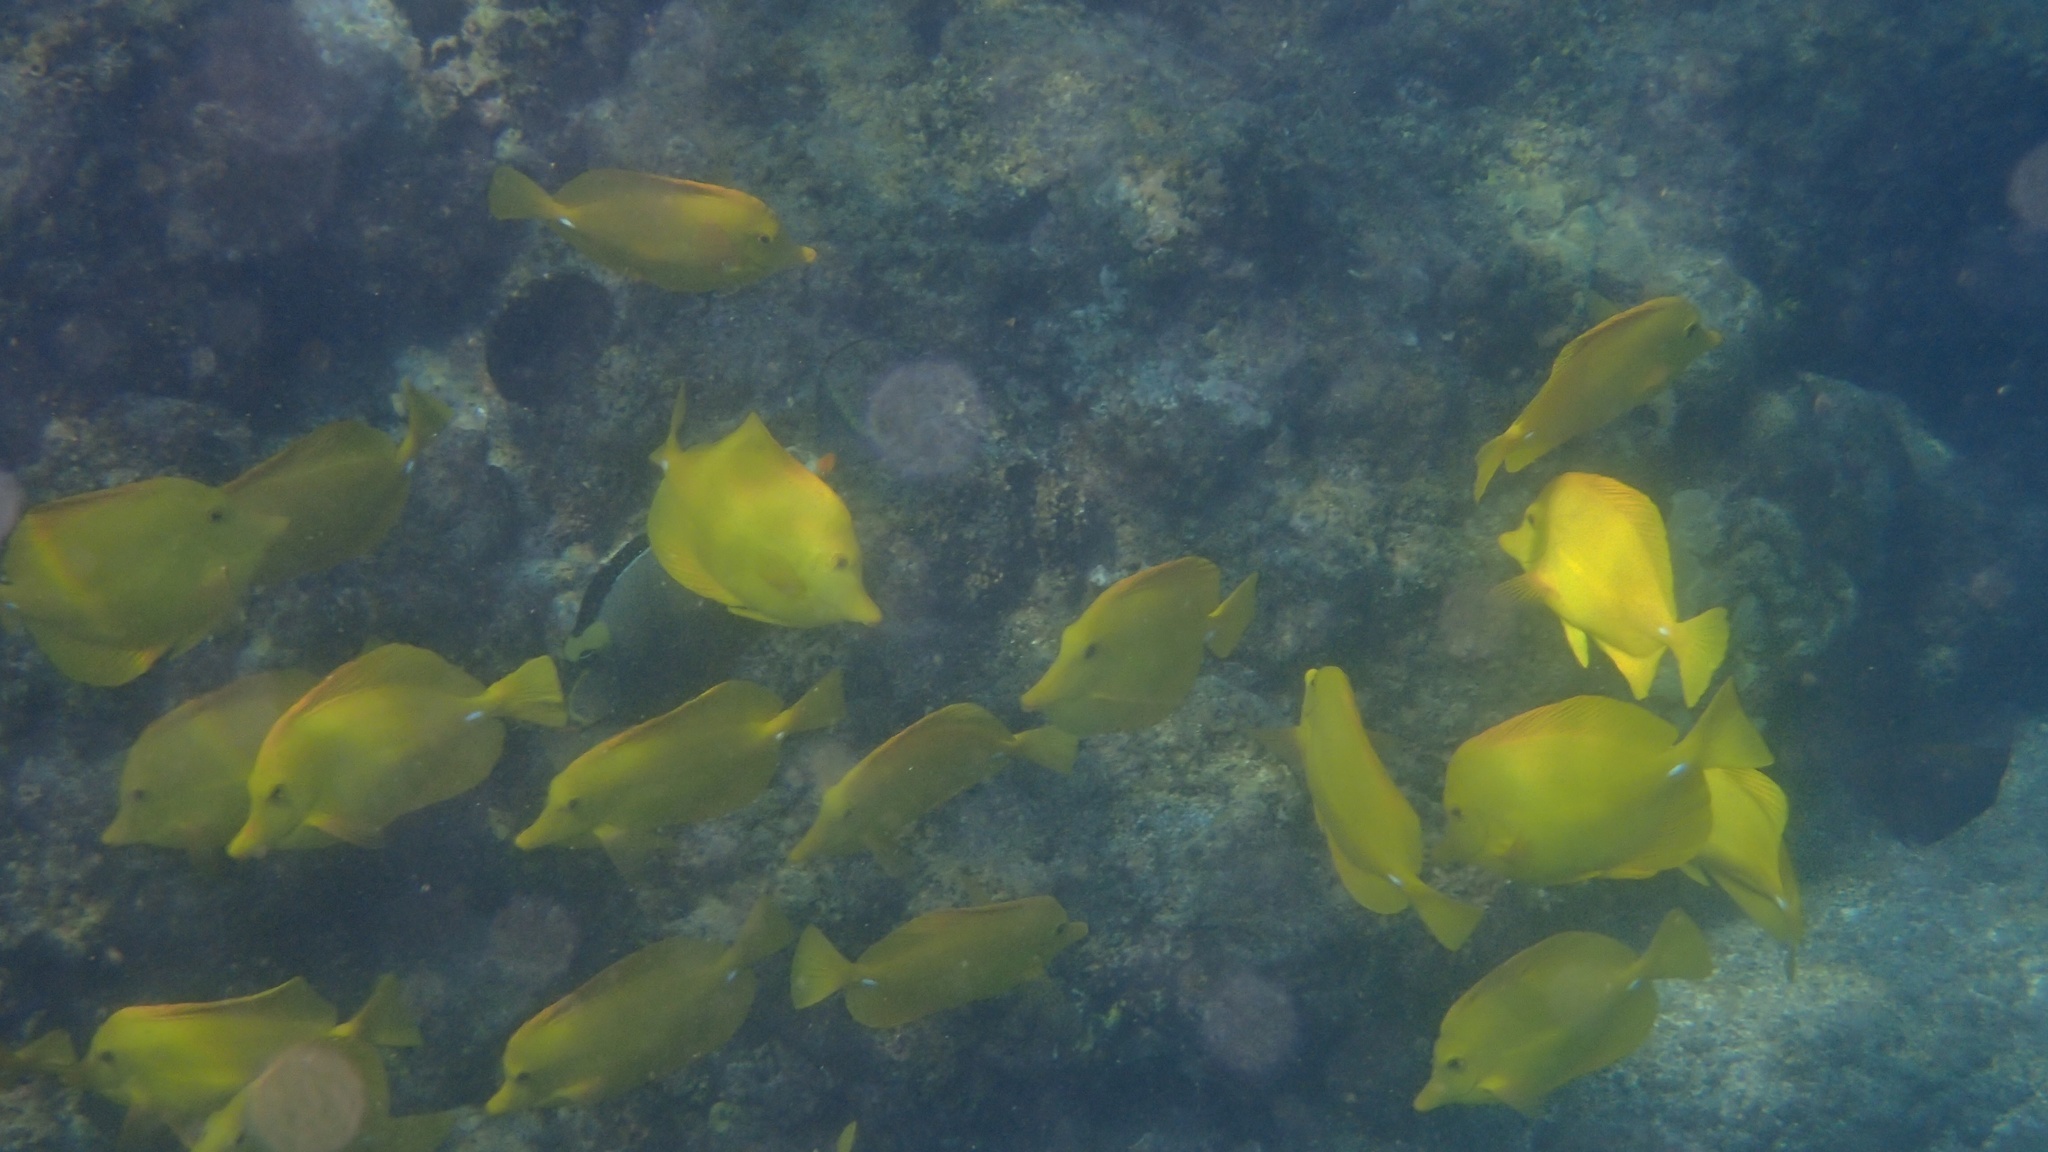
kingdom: Animalia
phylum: Chordata
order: Perciformes
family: Acanthuridae
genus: Zebrasoma
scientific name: Zebrasoma flavescens
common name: Yellow tang
